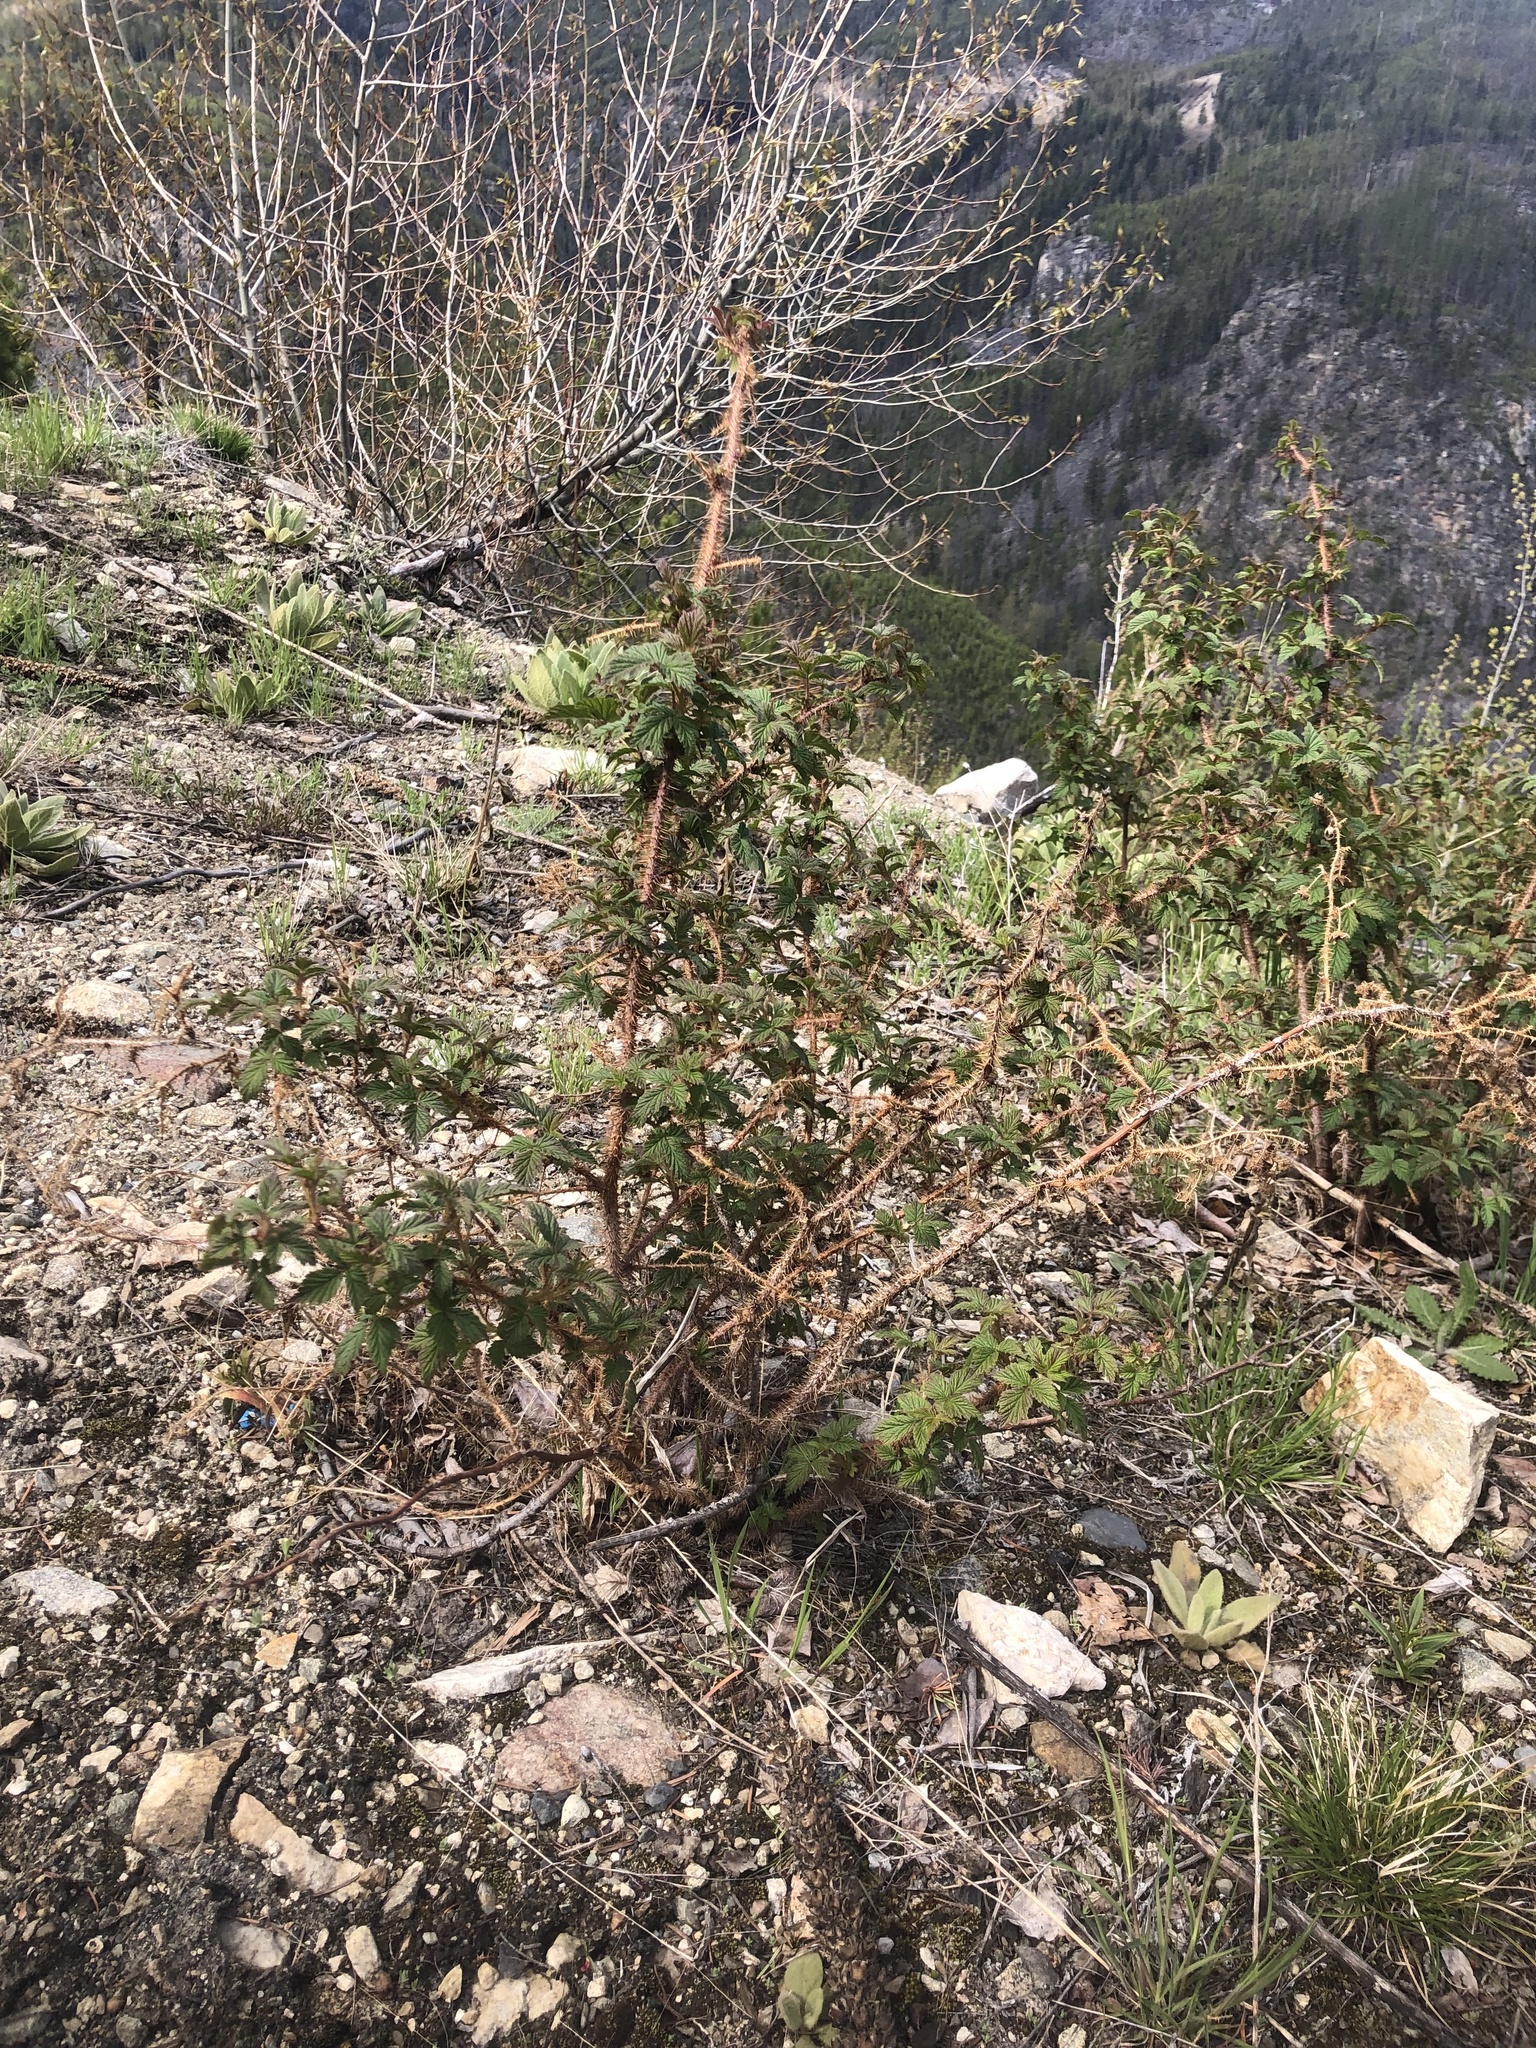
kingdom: Plantae
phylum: Tracheophyta
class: Magnoliopsida
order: Rosales
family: Rosaceae
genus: Rubus
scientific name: Rubus idaeus
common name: Raspberry
